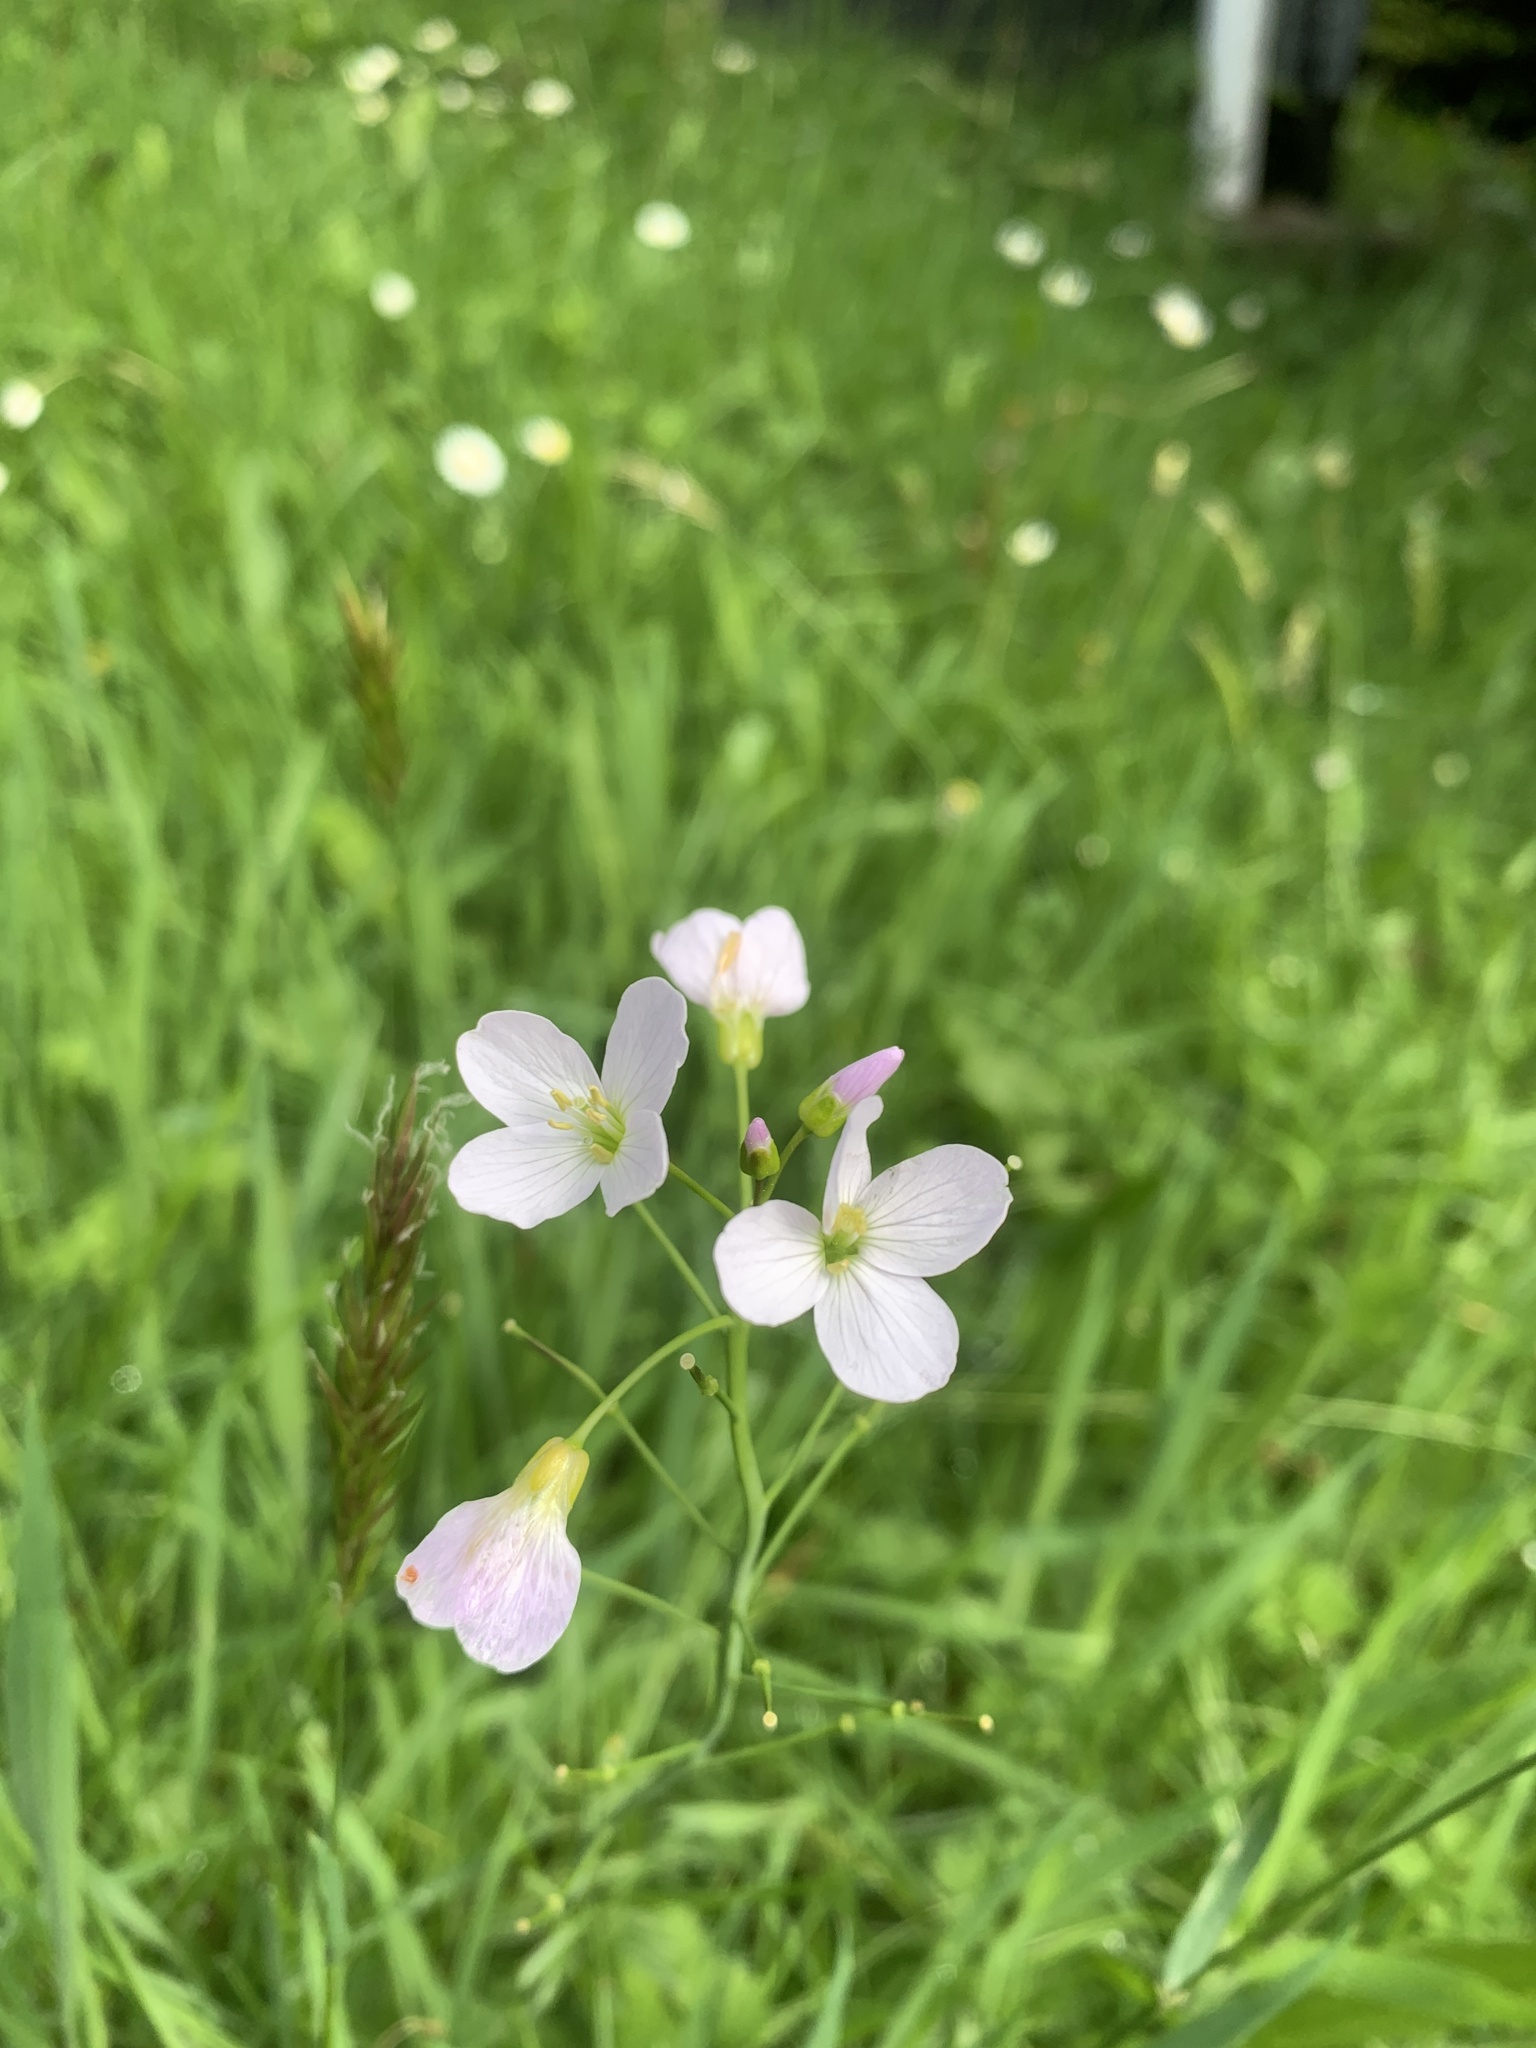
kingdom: Plantae
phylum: Tracheophyta
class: Magnoliopsida
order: Brassicales
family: Brassicaceae
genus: Cardamine
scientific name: Cardamine pratensis
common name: Cuckoo flower
